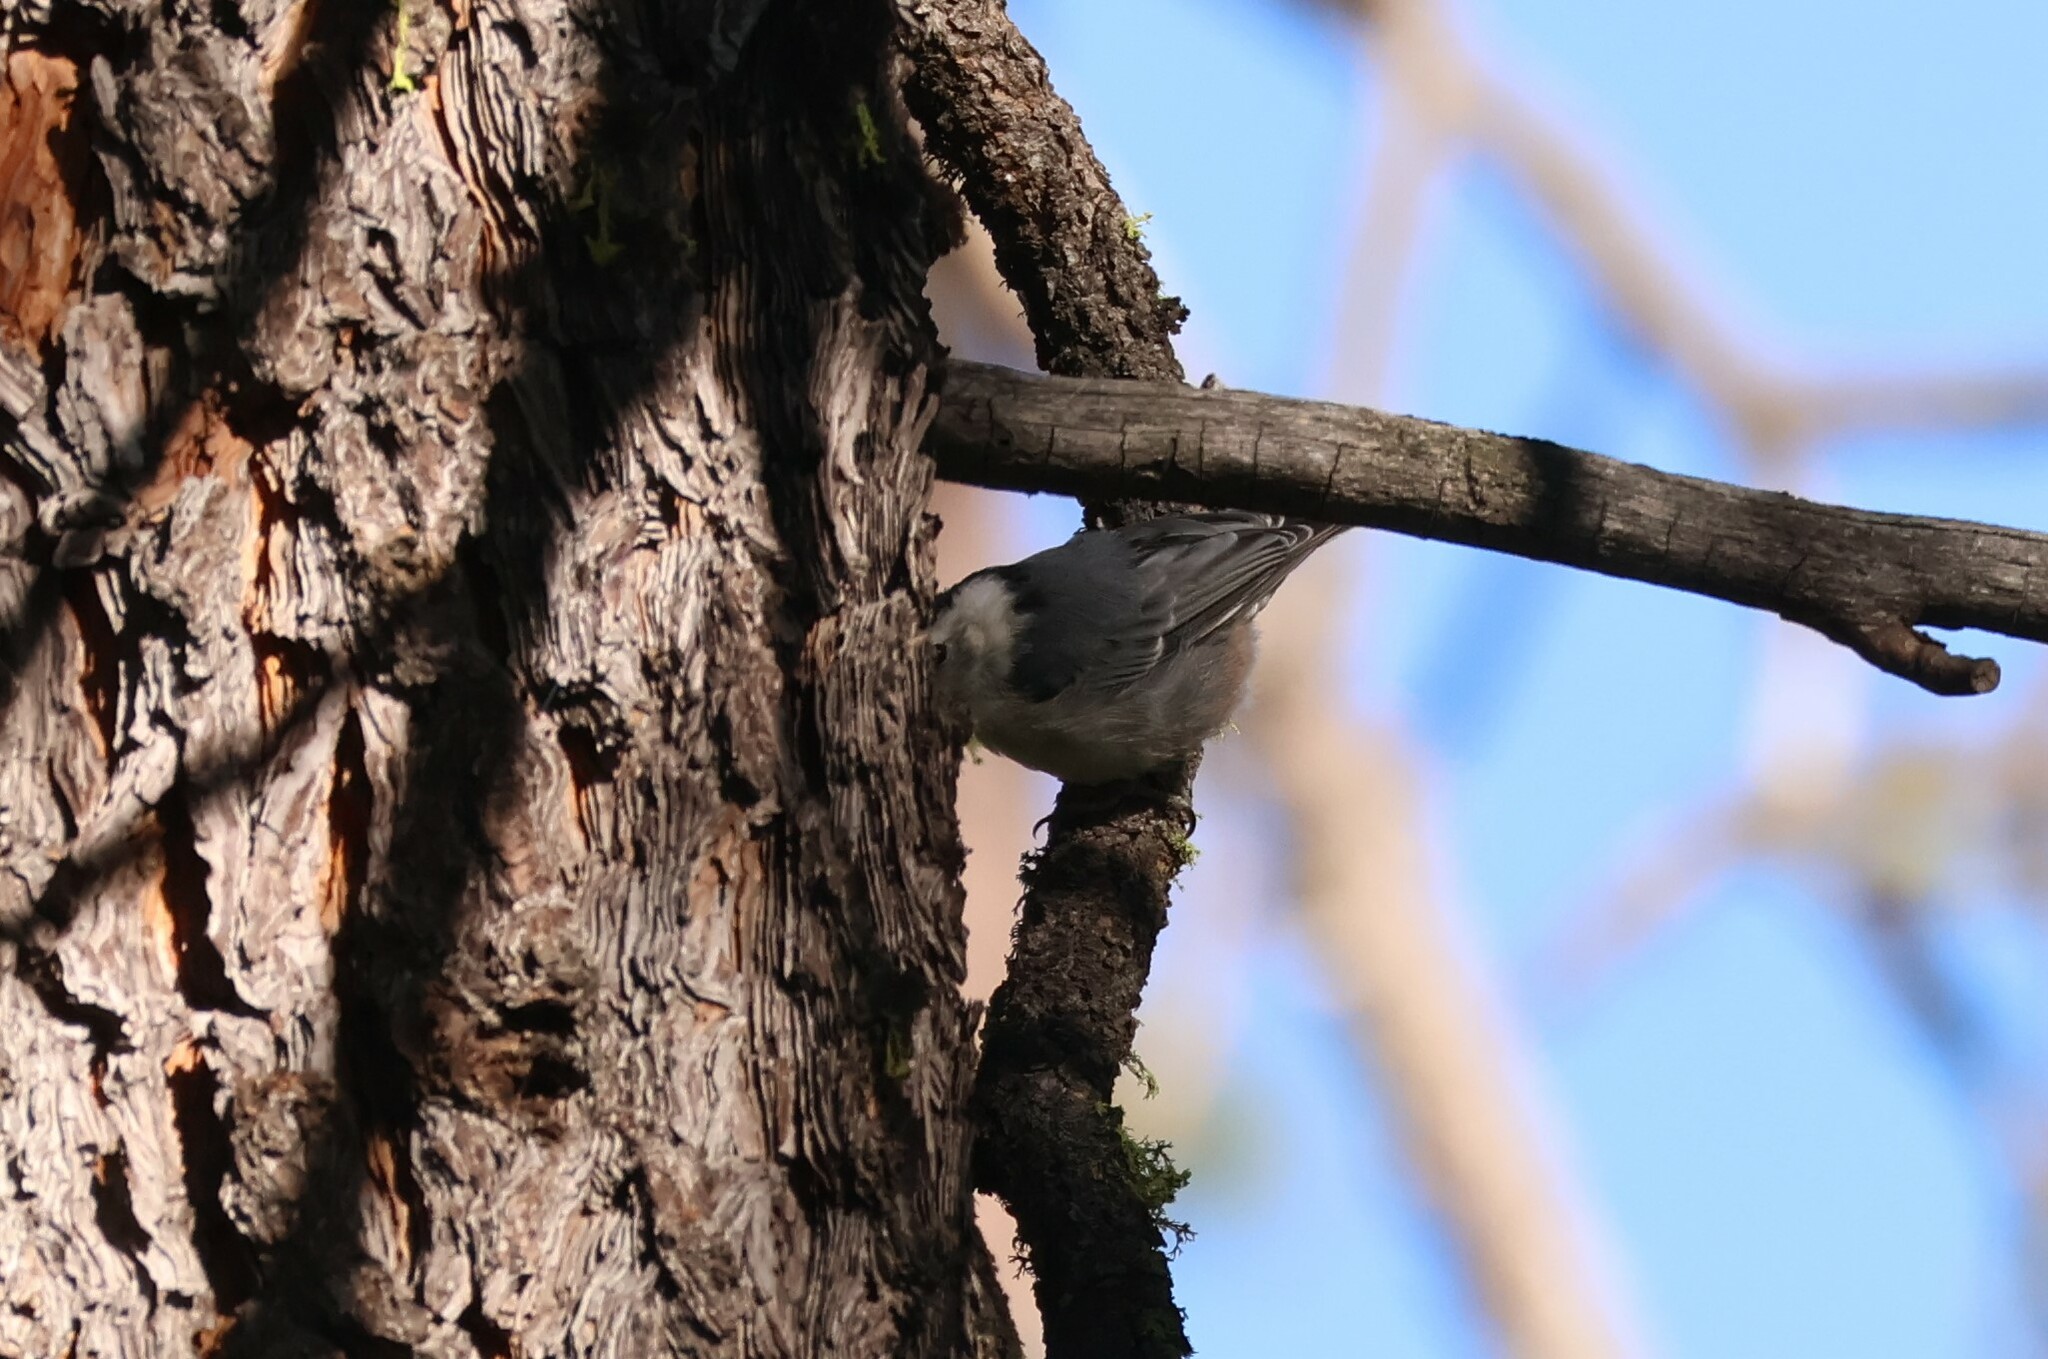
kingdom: Animalia
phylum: Chordata
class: Aves
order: Passeriformes
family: Sittidae
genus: Sitta
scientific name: Sitta carolinensis
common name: White-breasted nuthatch
